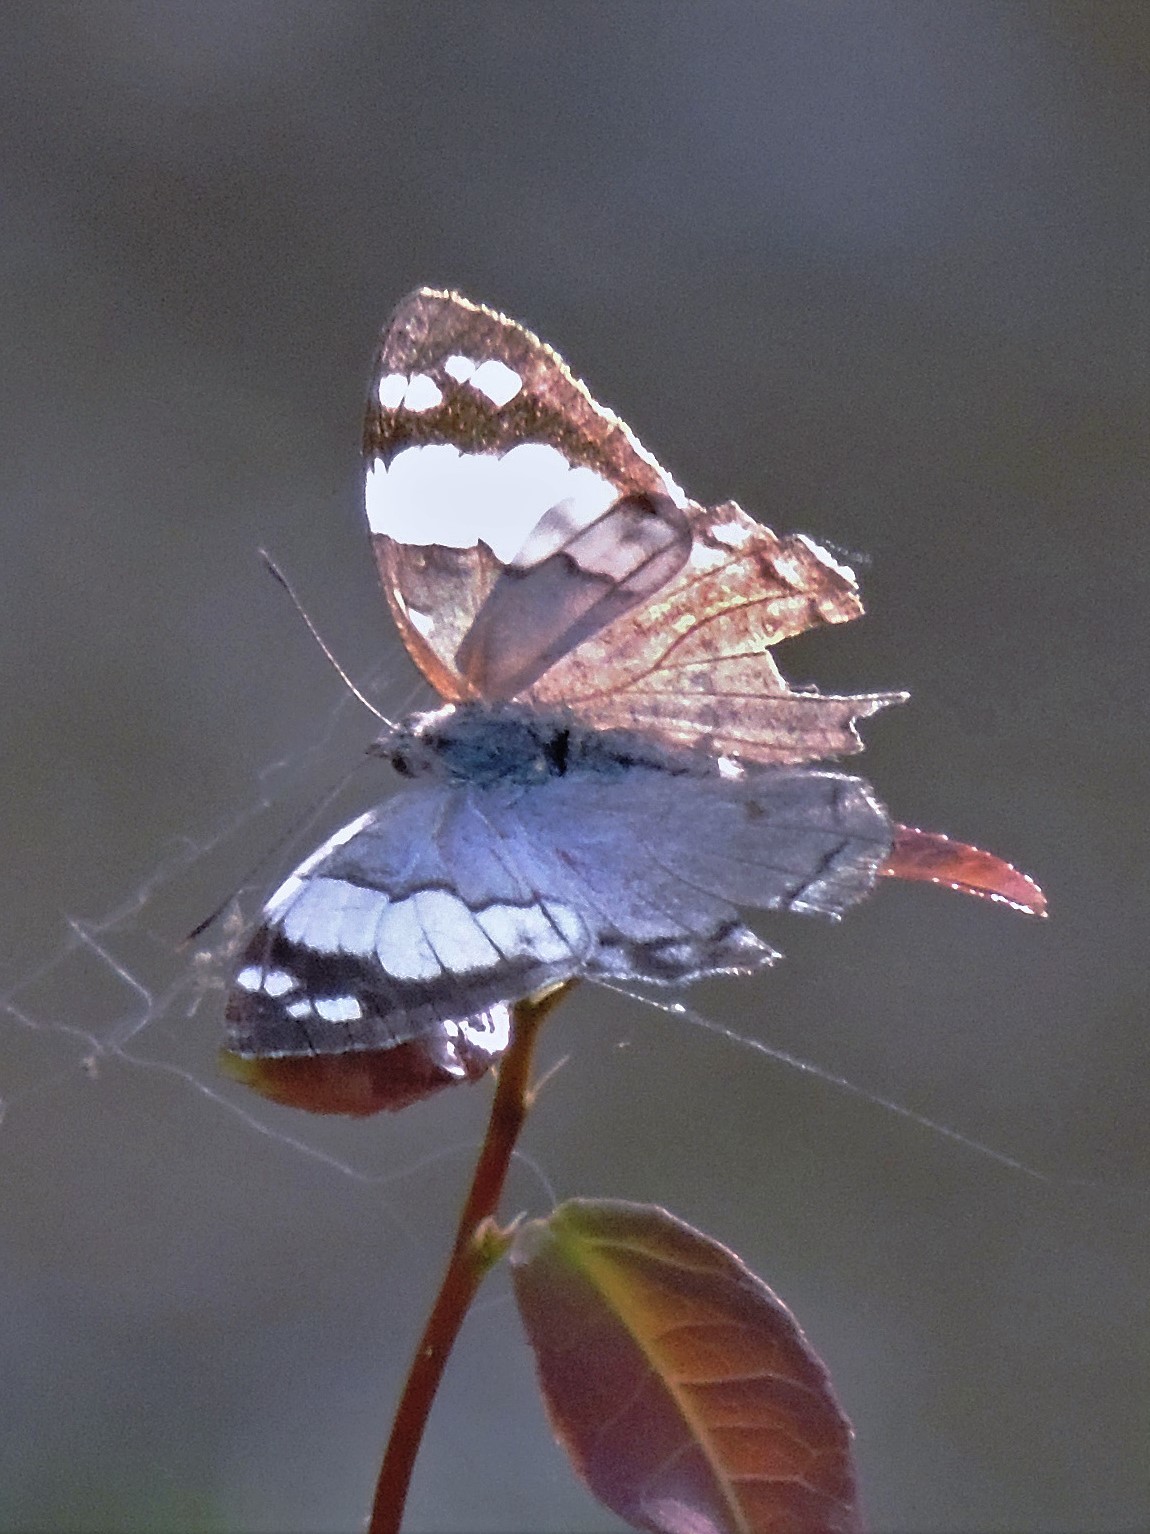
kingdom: Animalia
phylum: Arthropoda
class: Insecta
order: Lepidoptera
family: Nymphalidae
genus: Eunica
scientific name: Eunica eburnea
